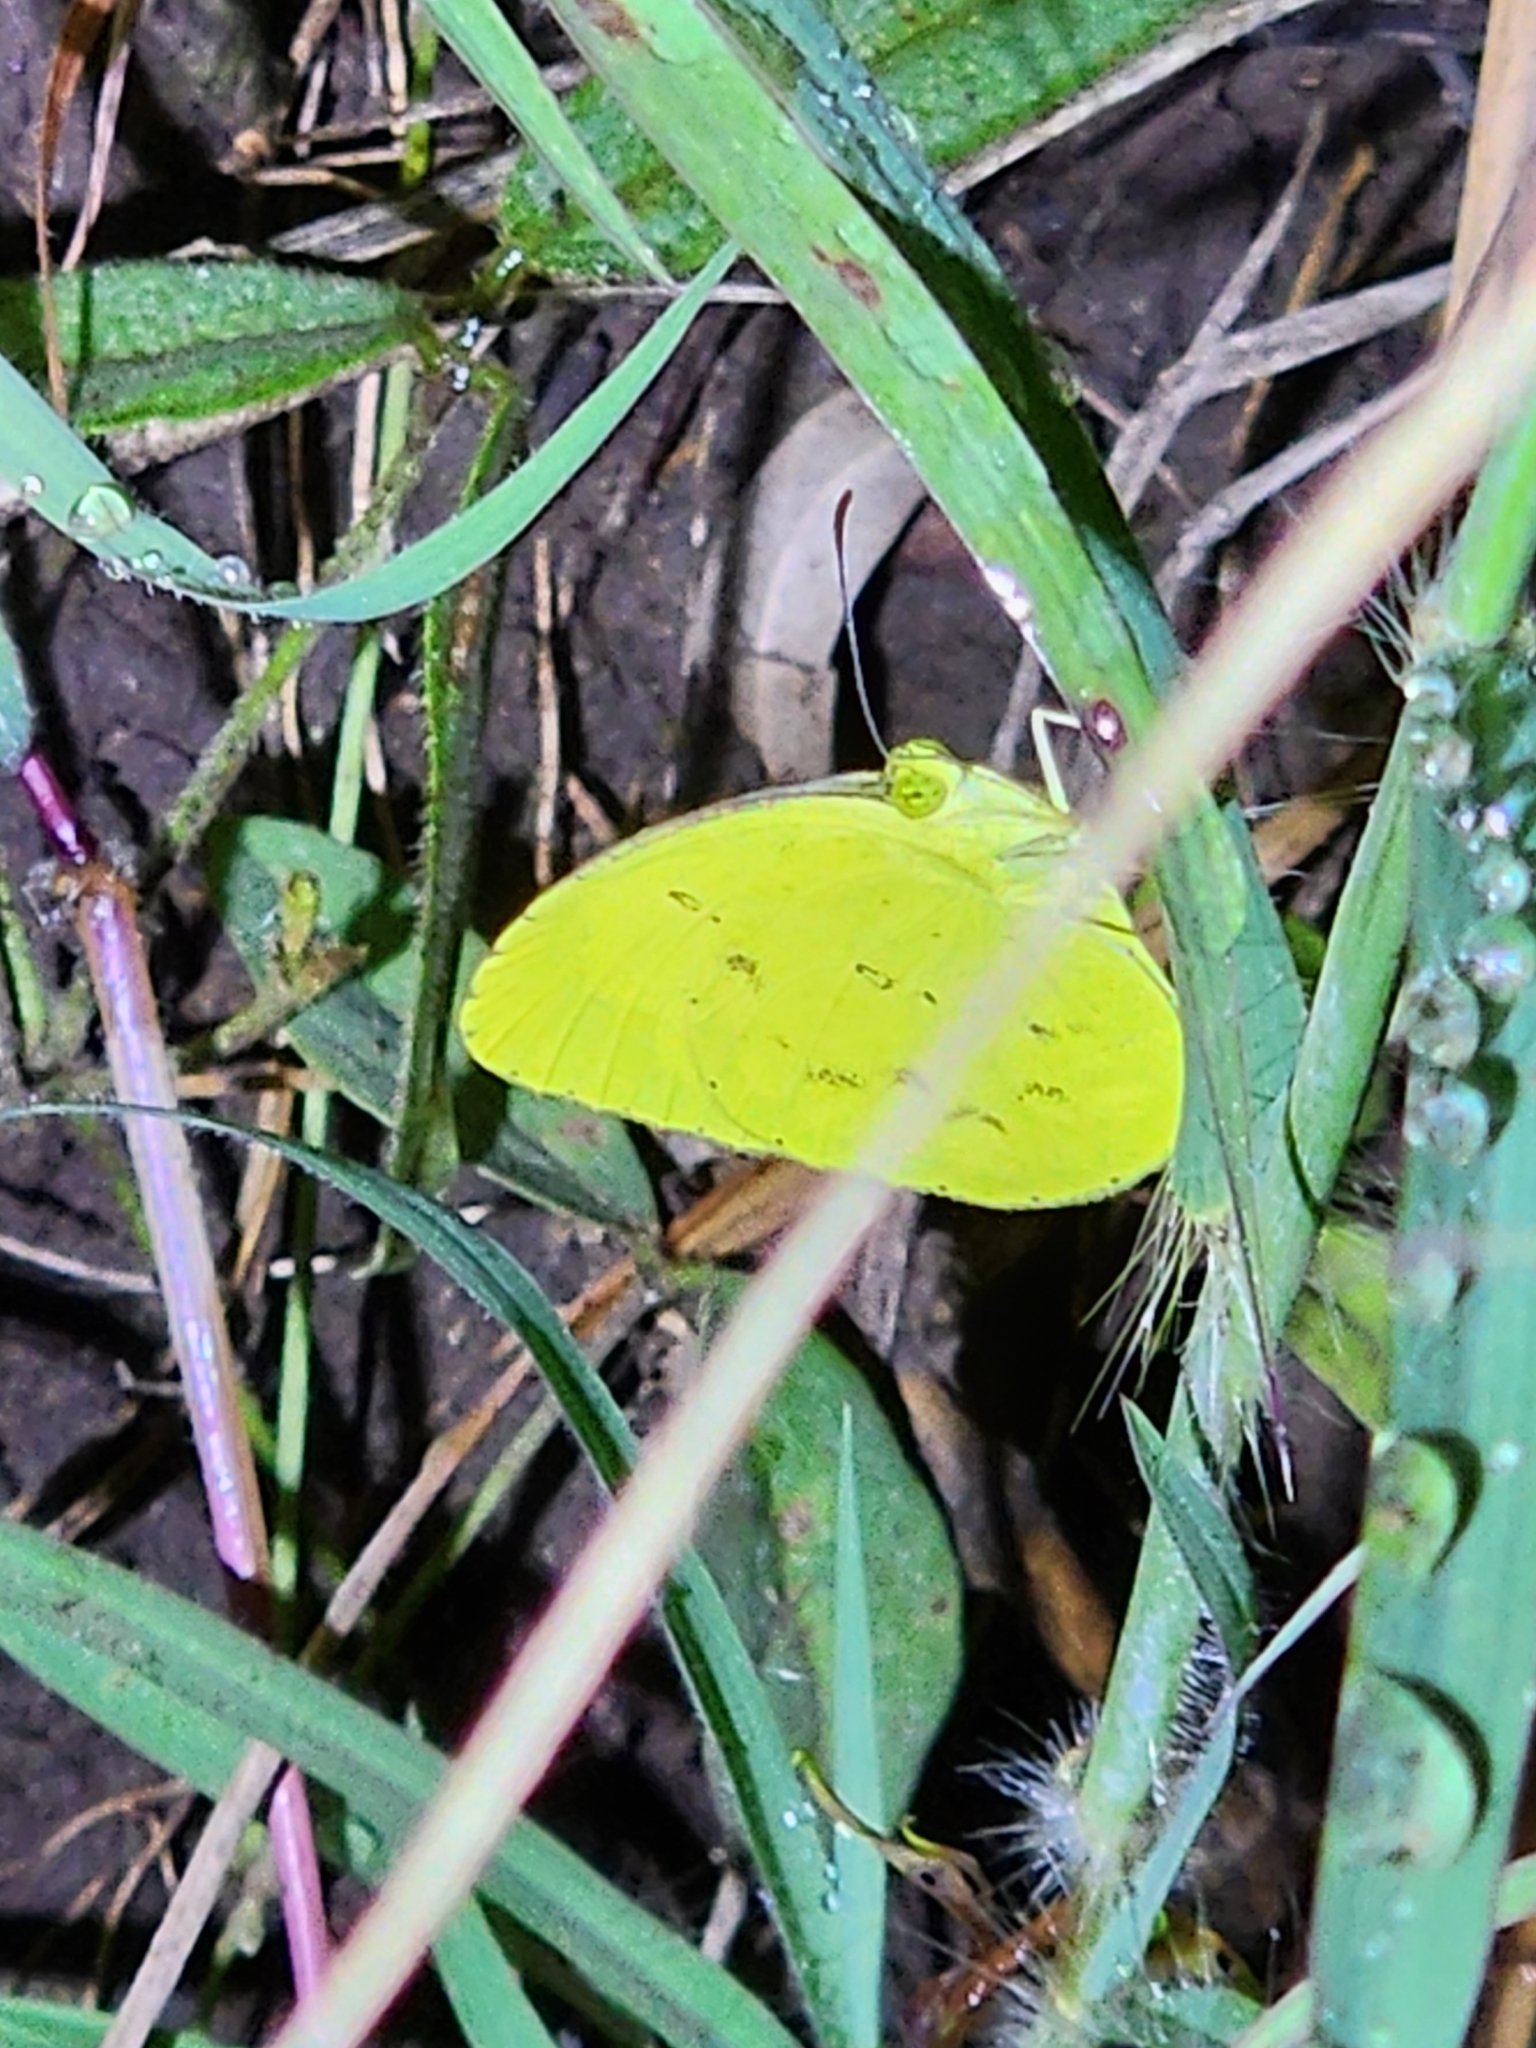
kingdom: Animalia
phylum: Arthropoda
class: Insecta
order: Lepidoptera
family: Pieridae
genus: Eurema
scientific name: Eurema hecabe
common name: Pale grass yellow
